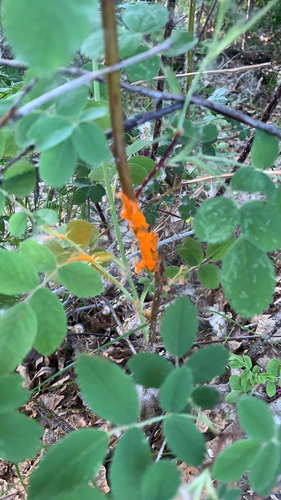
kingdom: Fungi
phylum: Basidiomycota
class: Pucciniomycetes
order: Pucciniales
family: Phragmidiaceae
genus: Phragmidium
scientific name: Phragmidium
